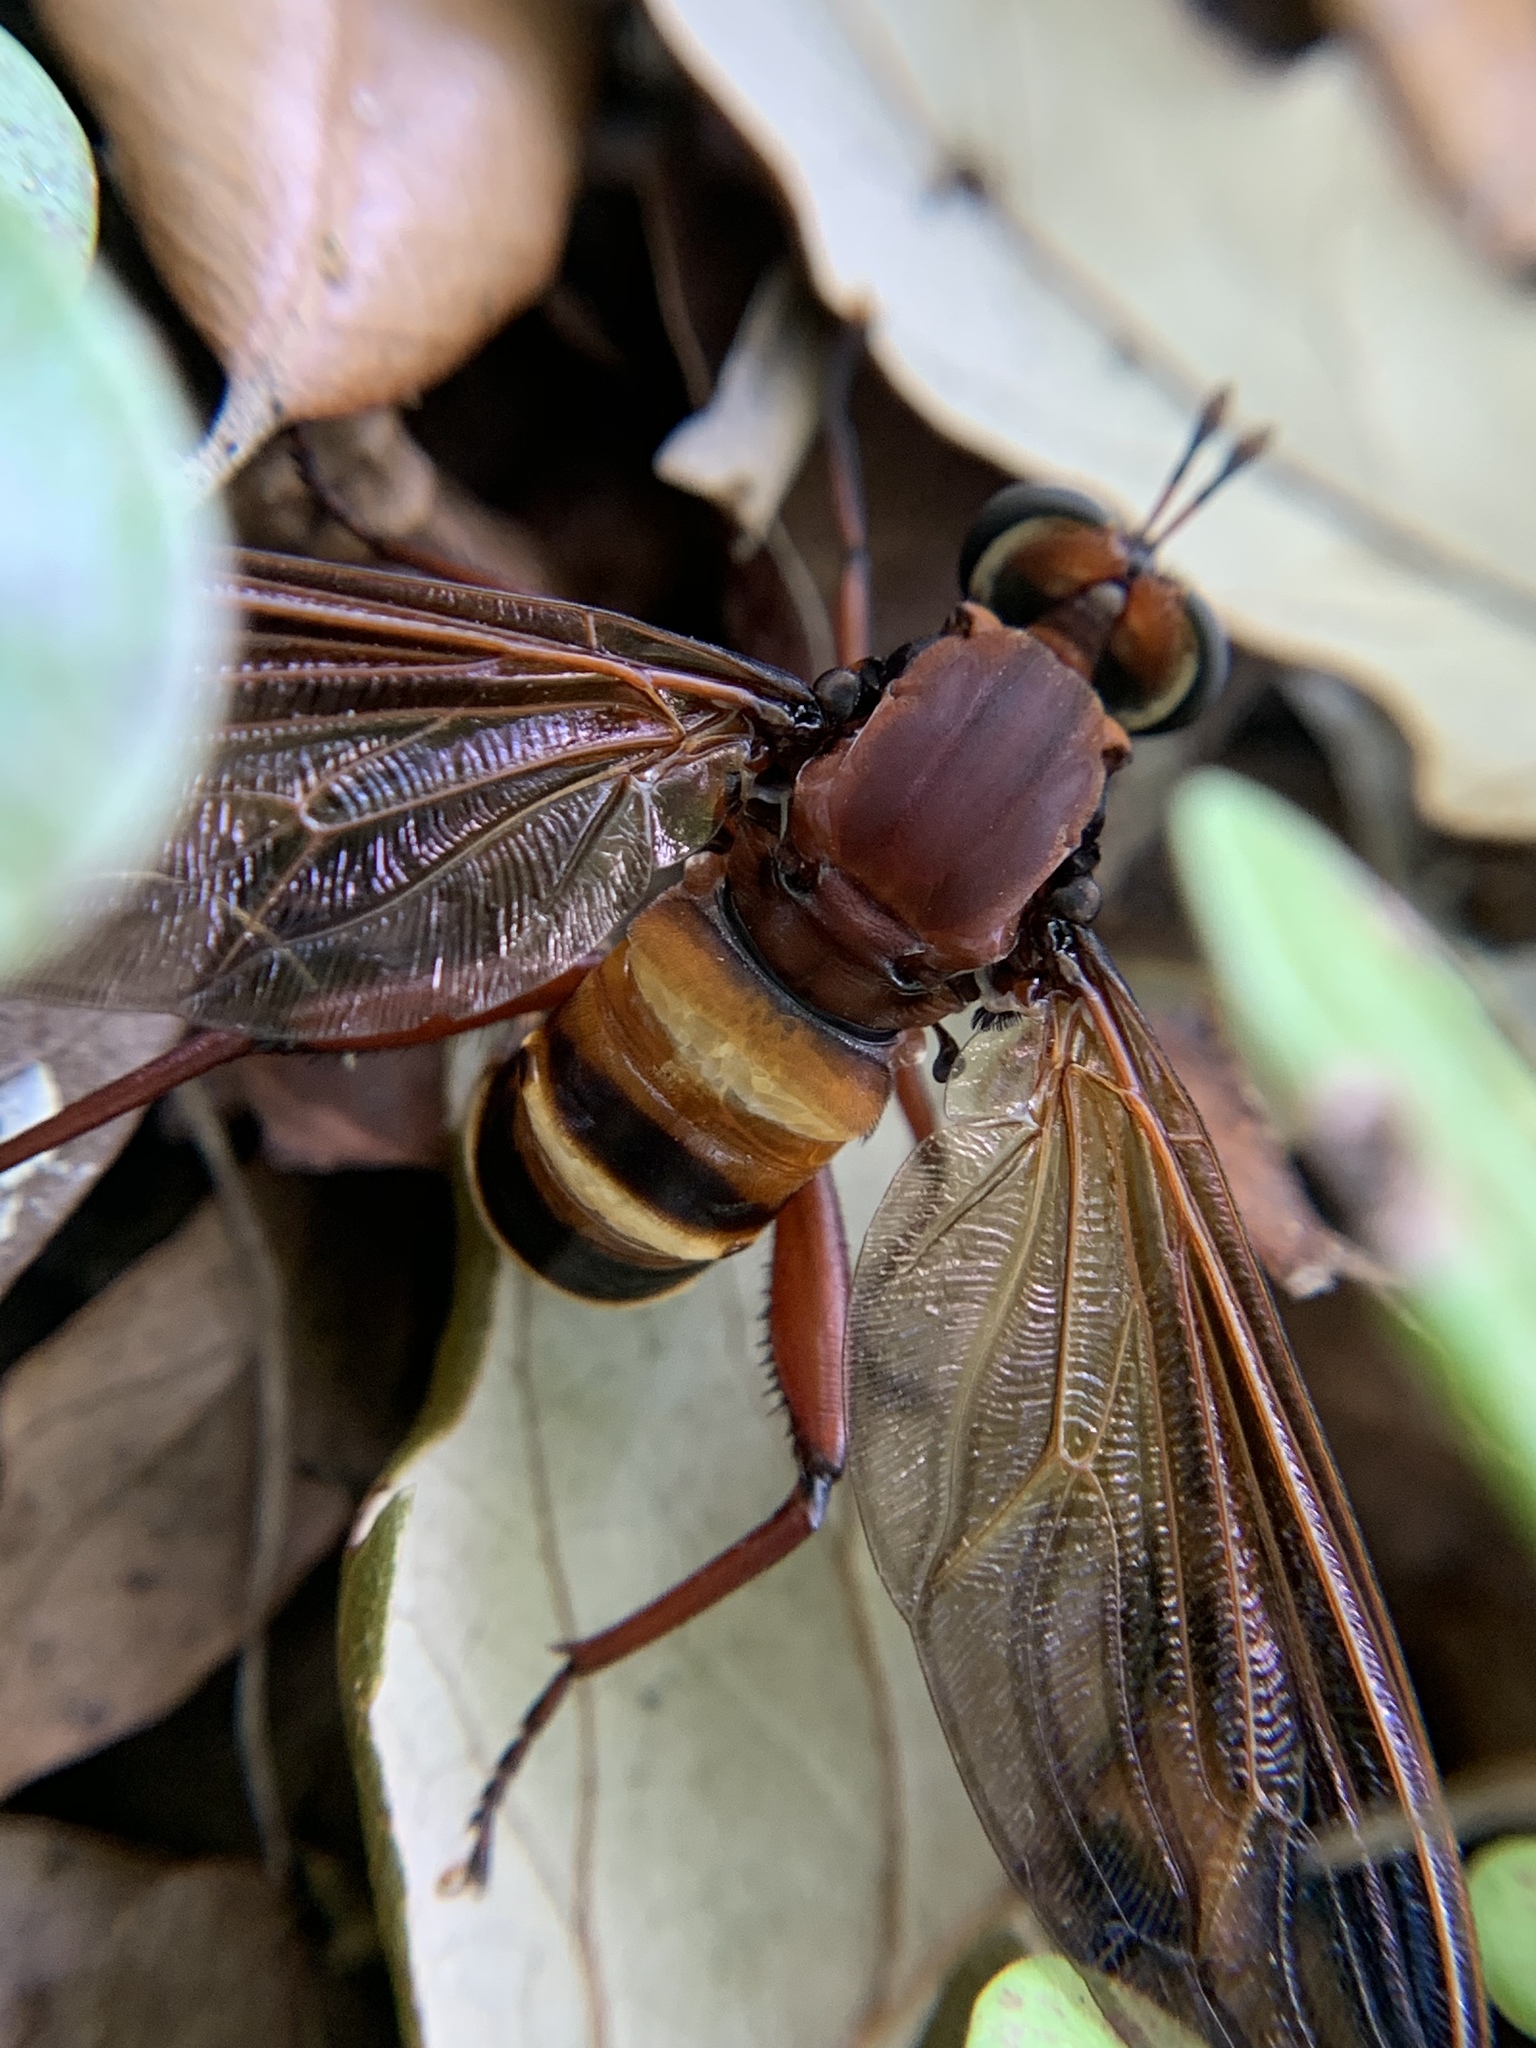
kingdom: Animalia
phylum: Arthropoda
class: Insecta
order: Diptera
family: Mydidae
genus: Mydas
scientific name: Mydas maculiventris
